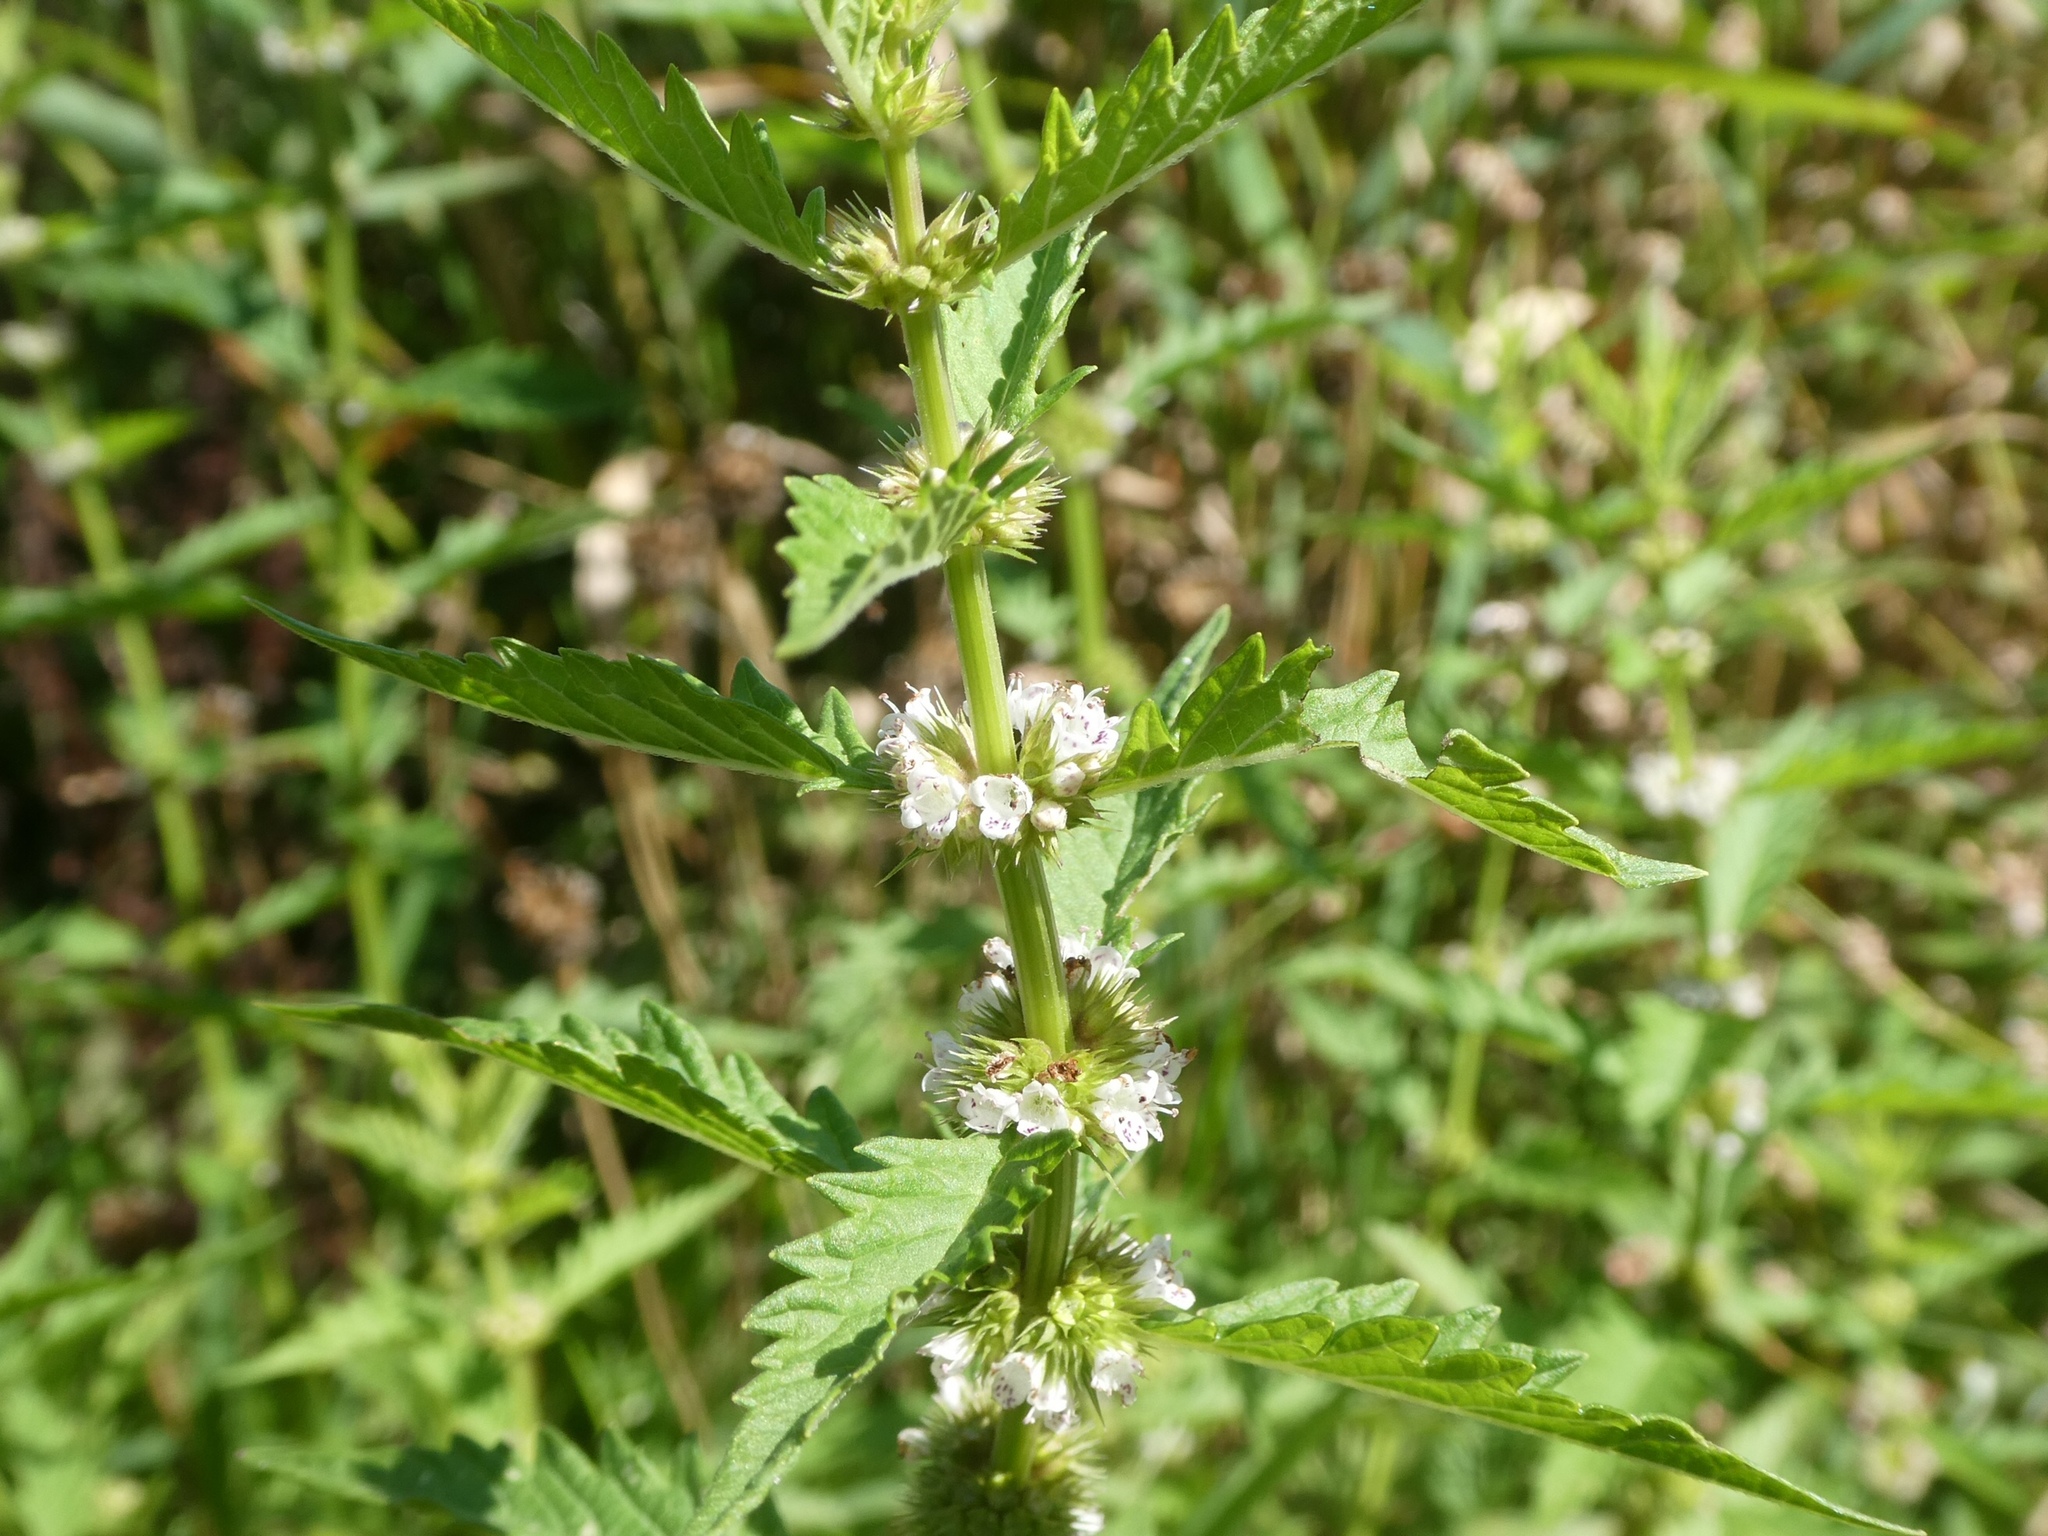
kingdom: Plantae
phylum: Tracheophyta
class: Magnoliopsida
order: Lamiales
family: Lamiaceae
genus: Lycopus
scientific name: Lycopus europaeus
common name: European bugleweed
